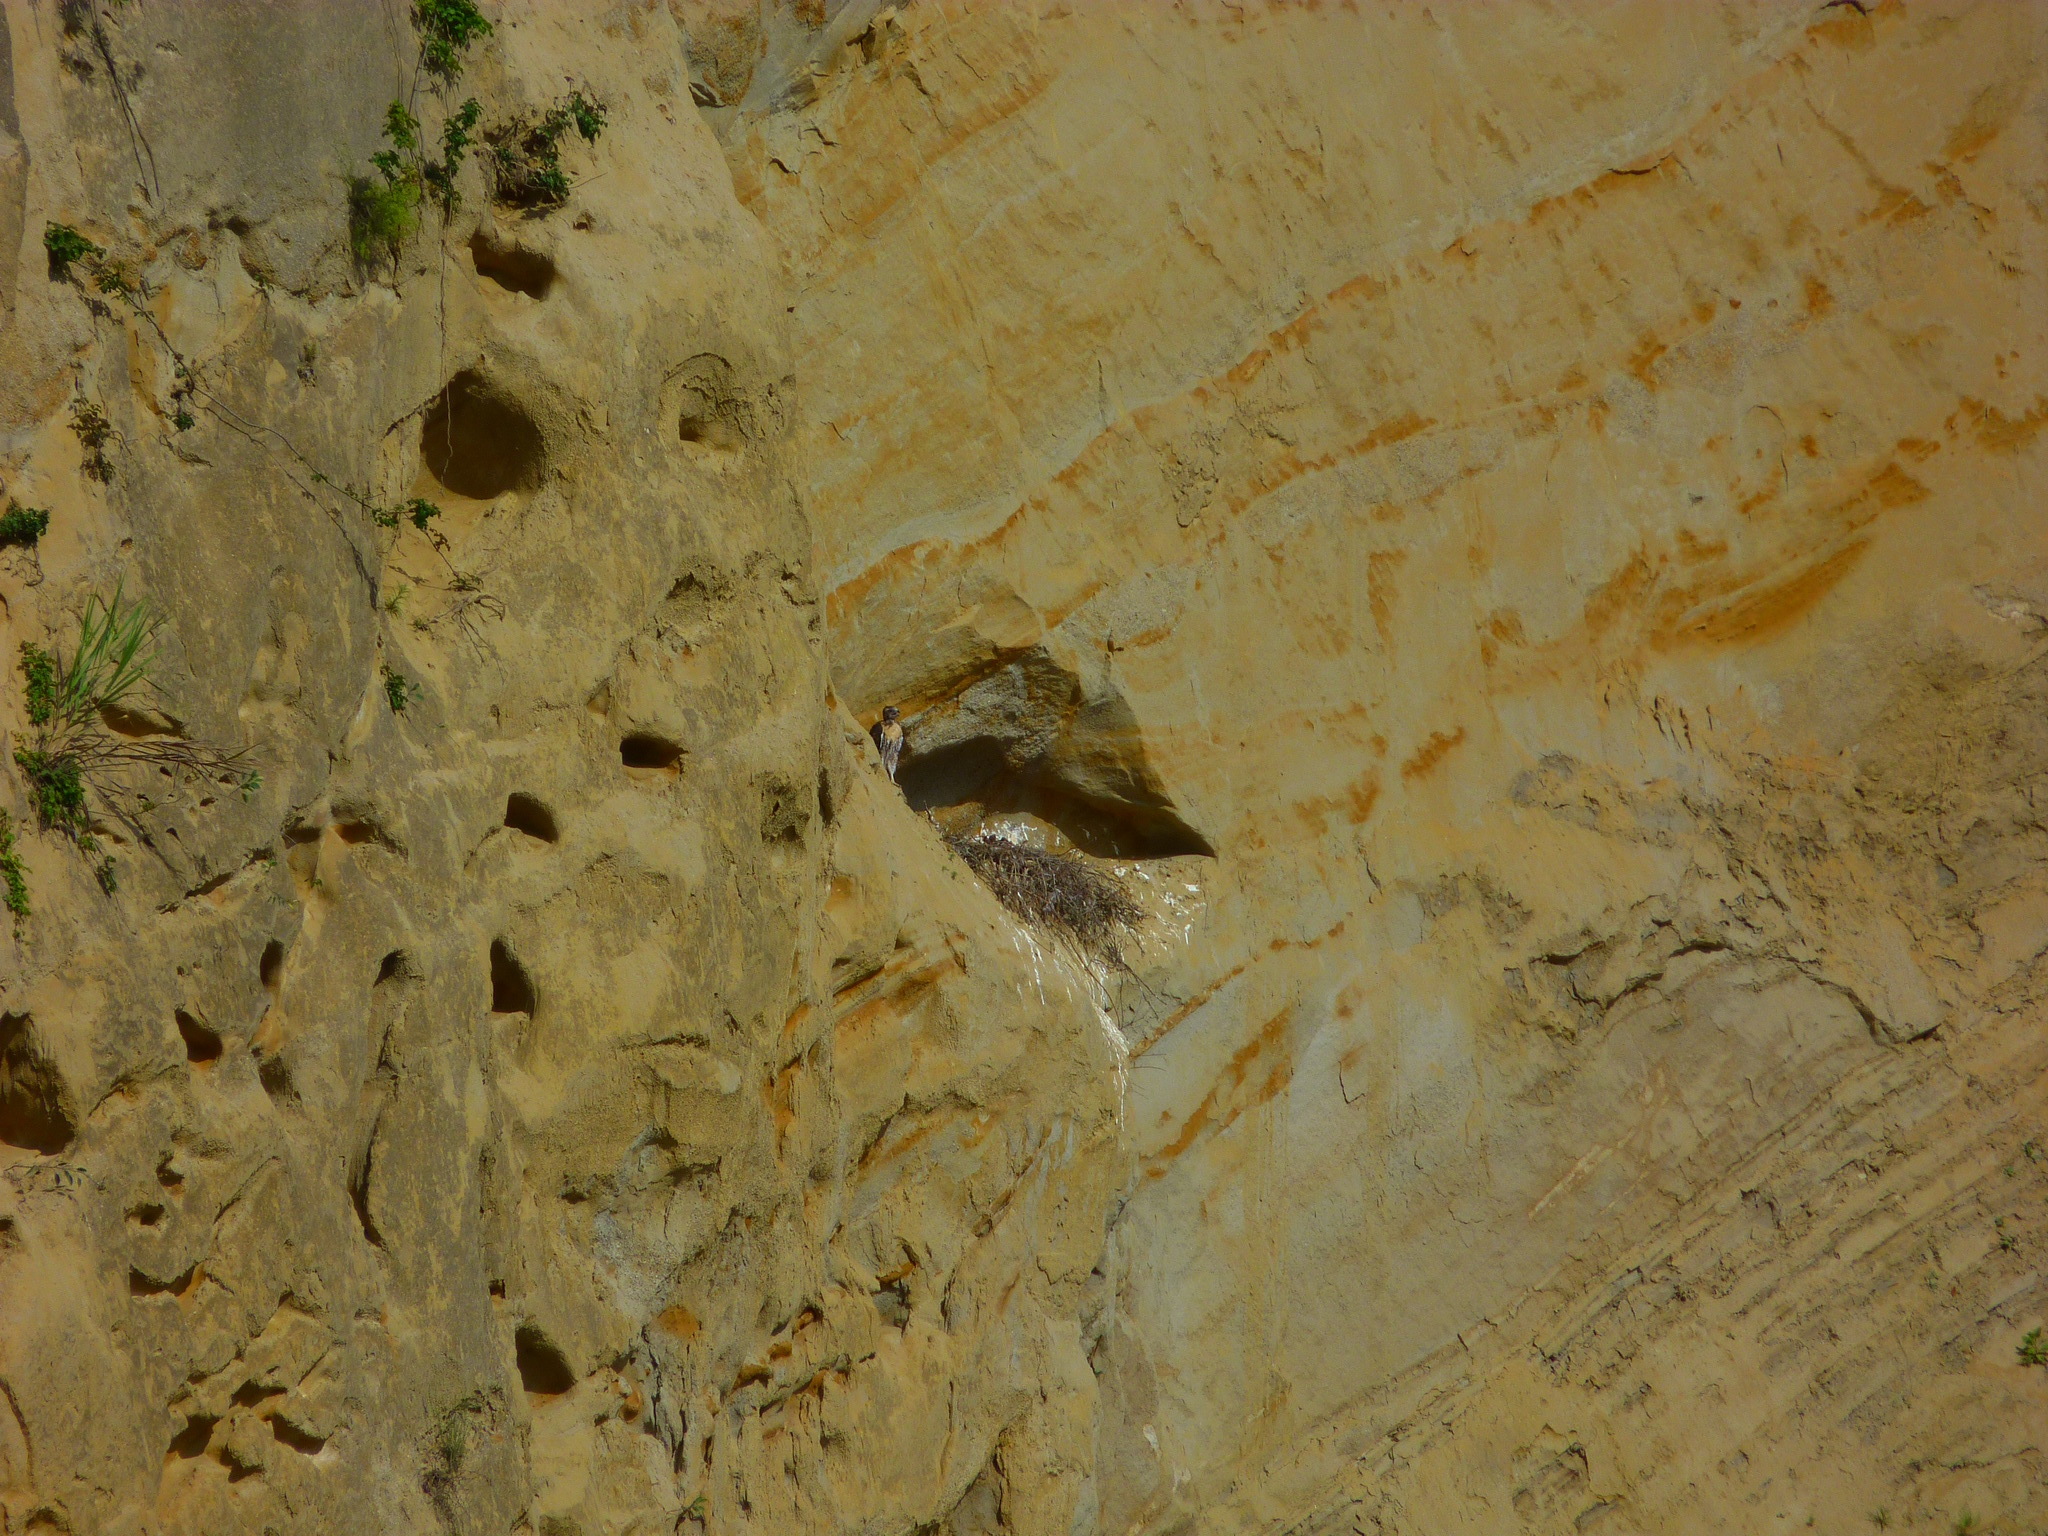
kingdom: Animalia
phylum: Chordata
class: Aves
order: Accipitriformes
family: Accipitridae
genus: Buteo
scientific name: Buteo jamaicensis
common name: Red-tailed hawk
